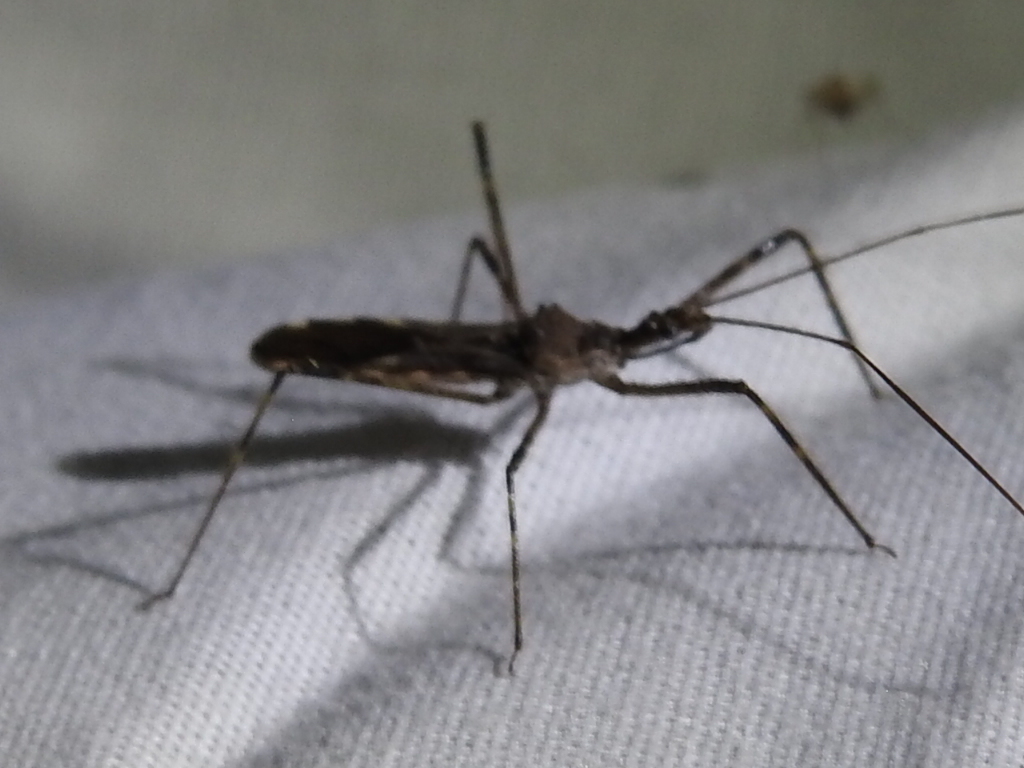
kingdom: Animalia
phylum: Arthropoda
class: Insecta
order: Hemiptera
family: Reduviidae
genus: Zelus
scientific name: Zelus tetracanthus
